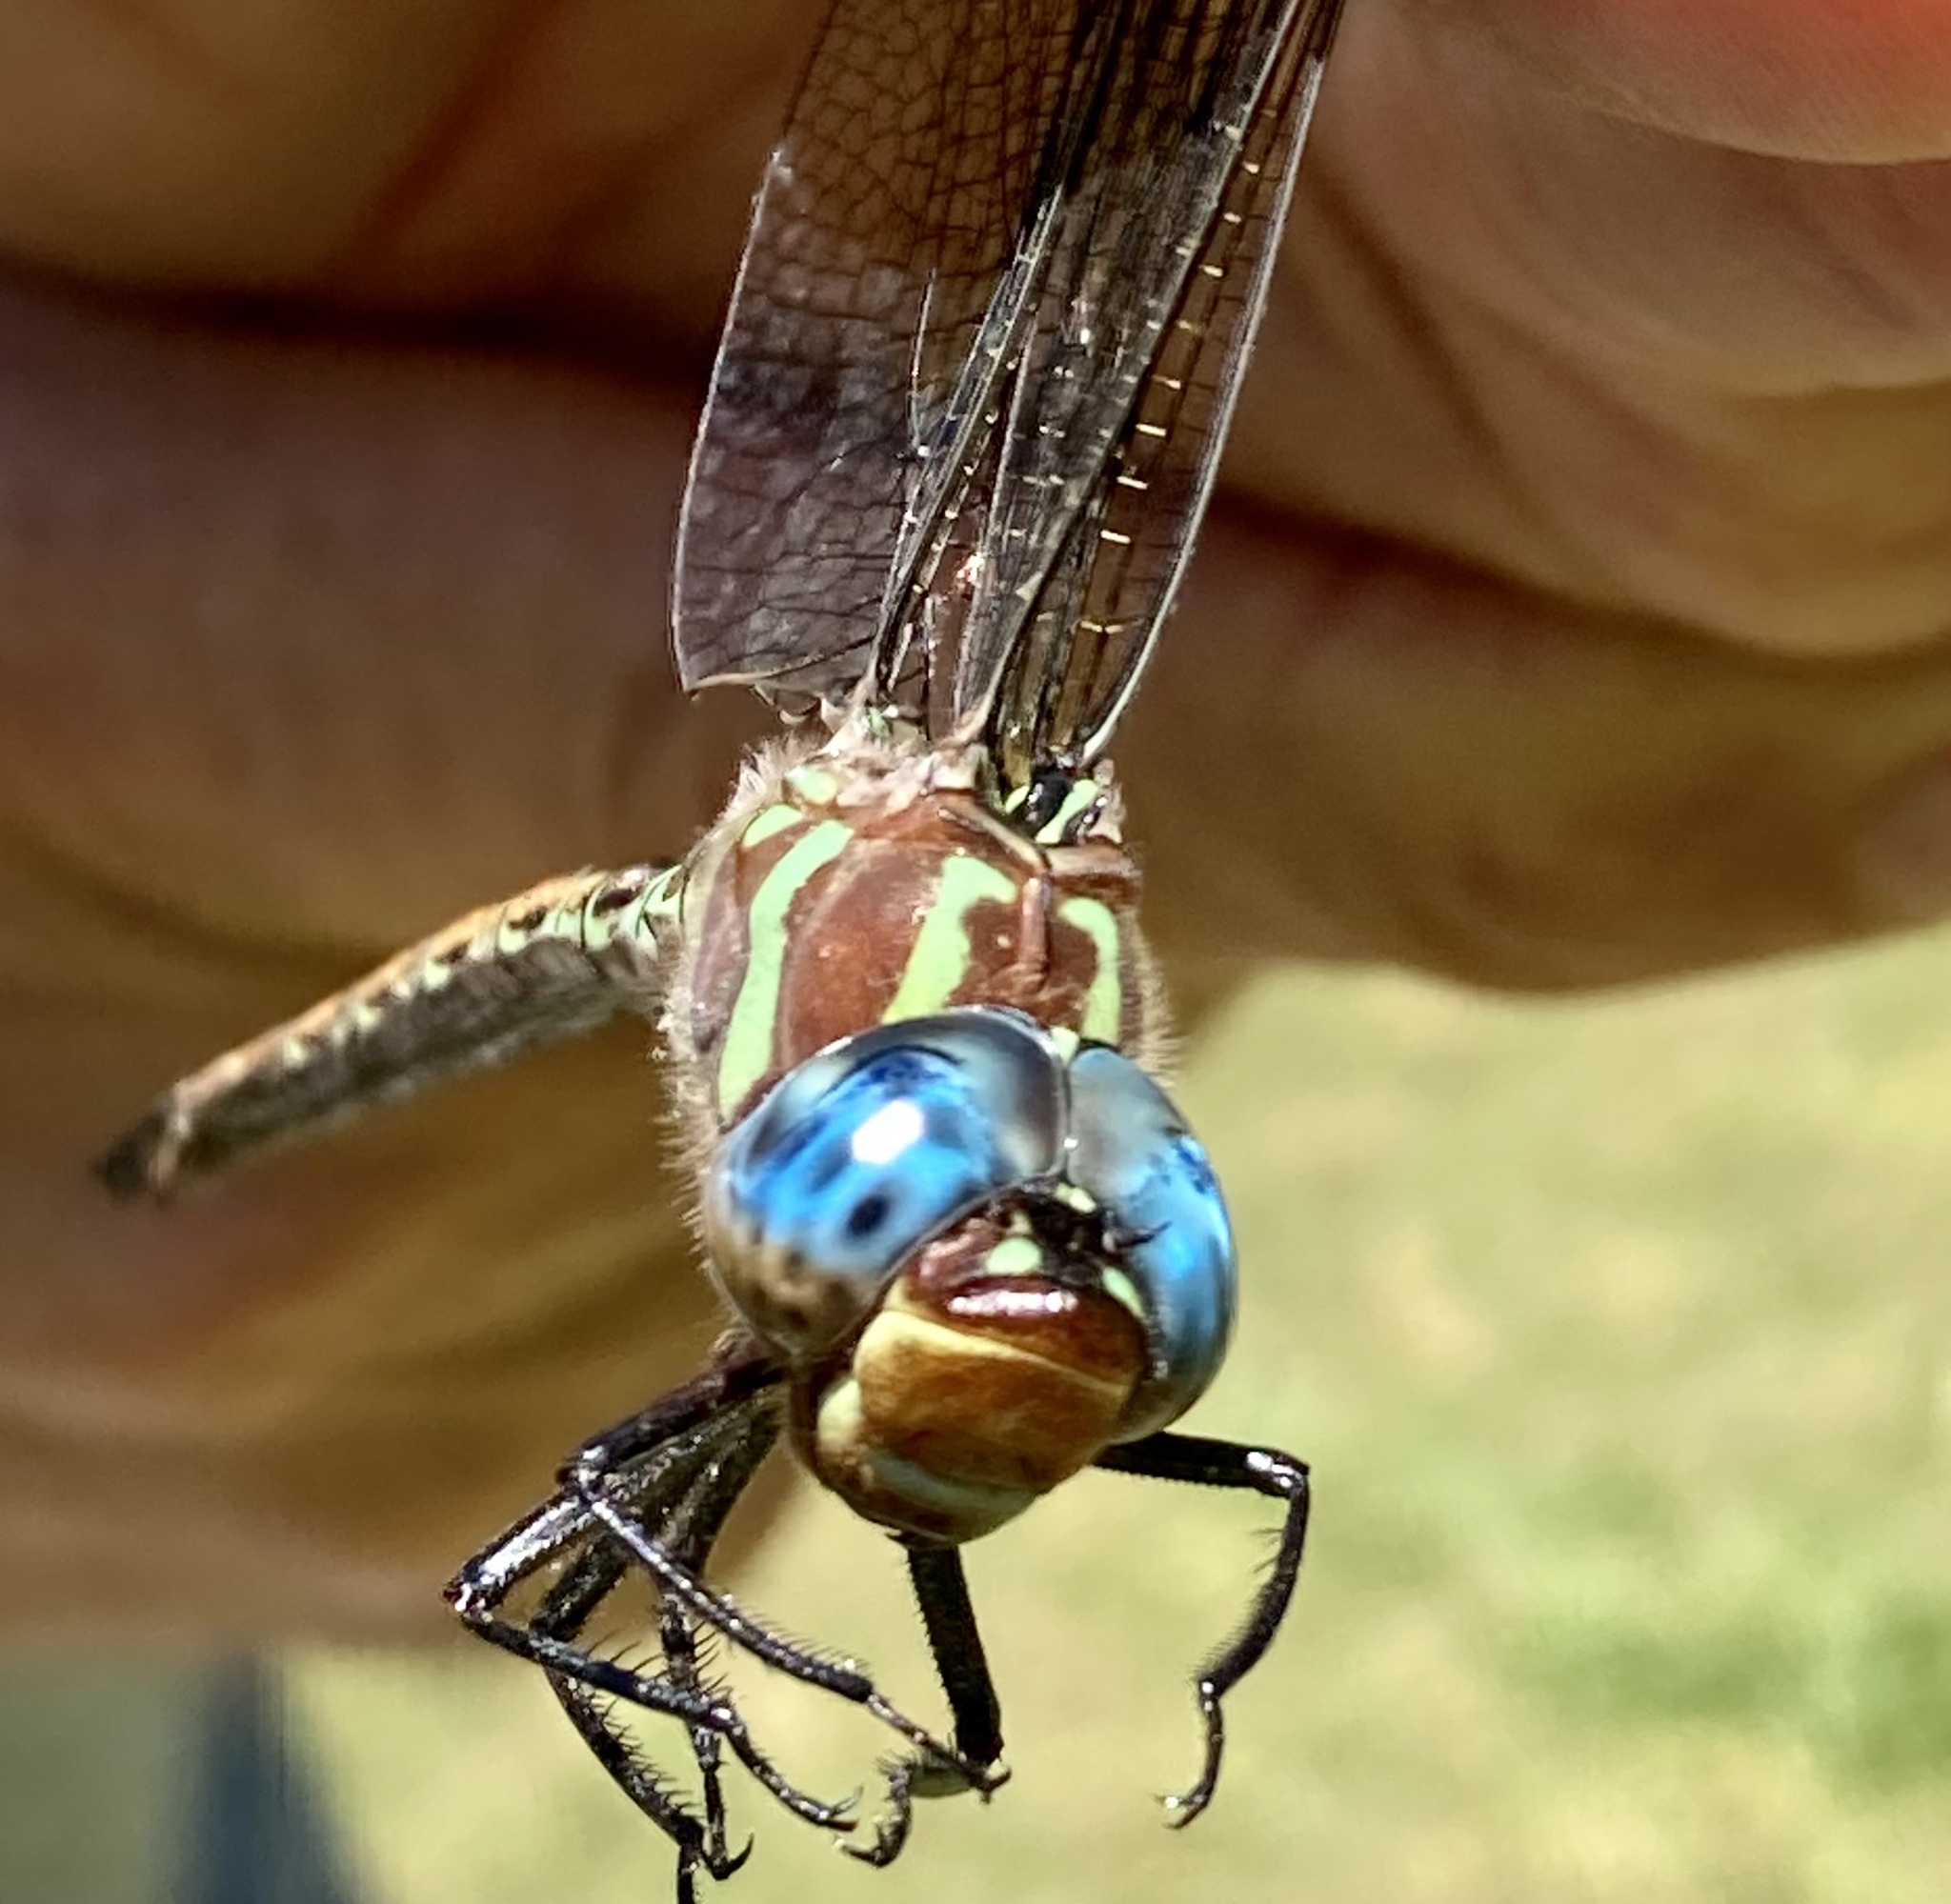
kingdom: Animalia
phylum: Arthropoda
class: Insecta
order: Odonata
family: Aeshnidae
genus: Epiaeschna
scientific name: Epiaeschna heros
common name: Swamp darner
